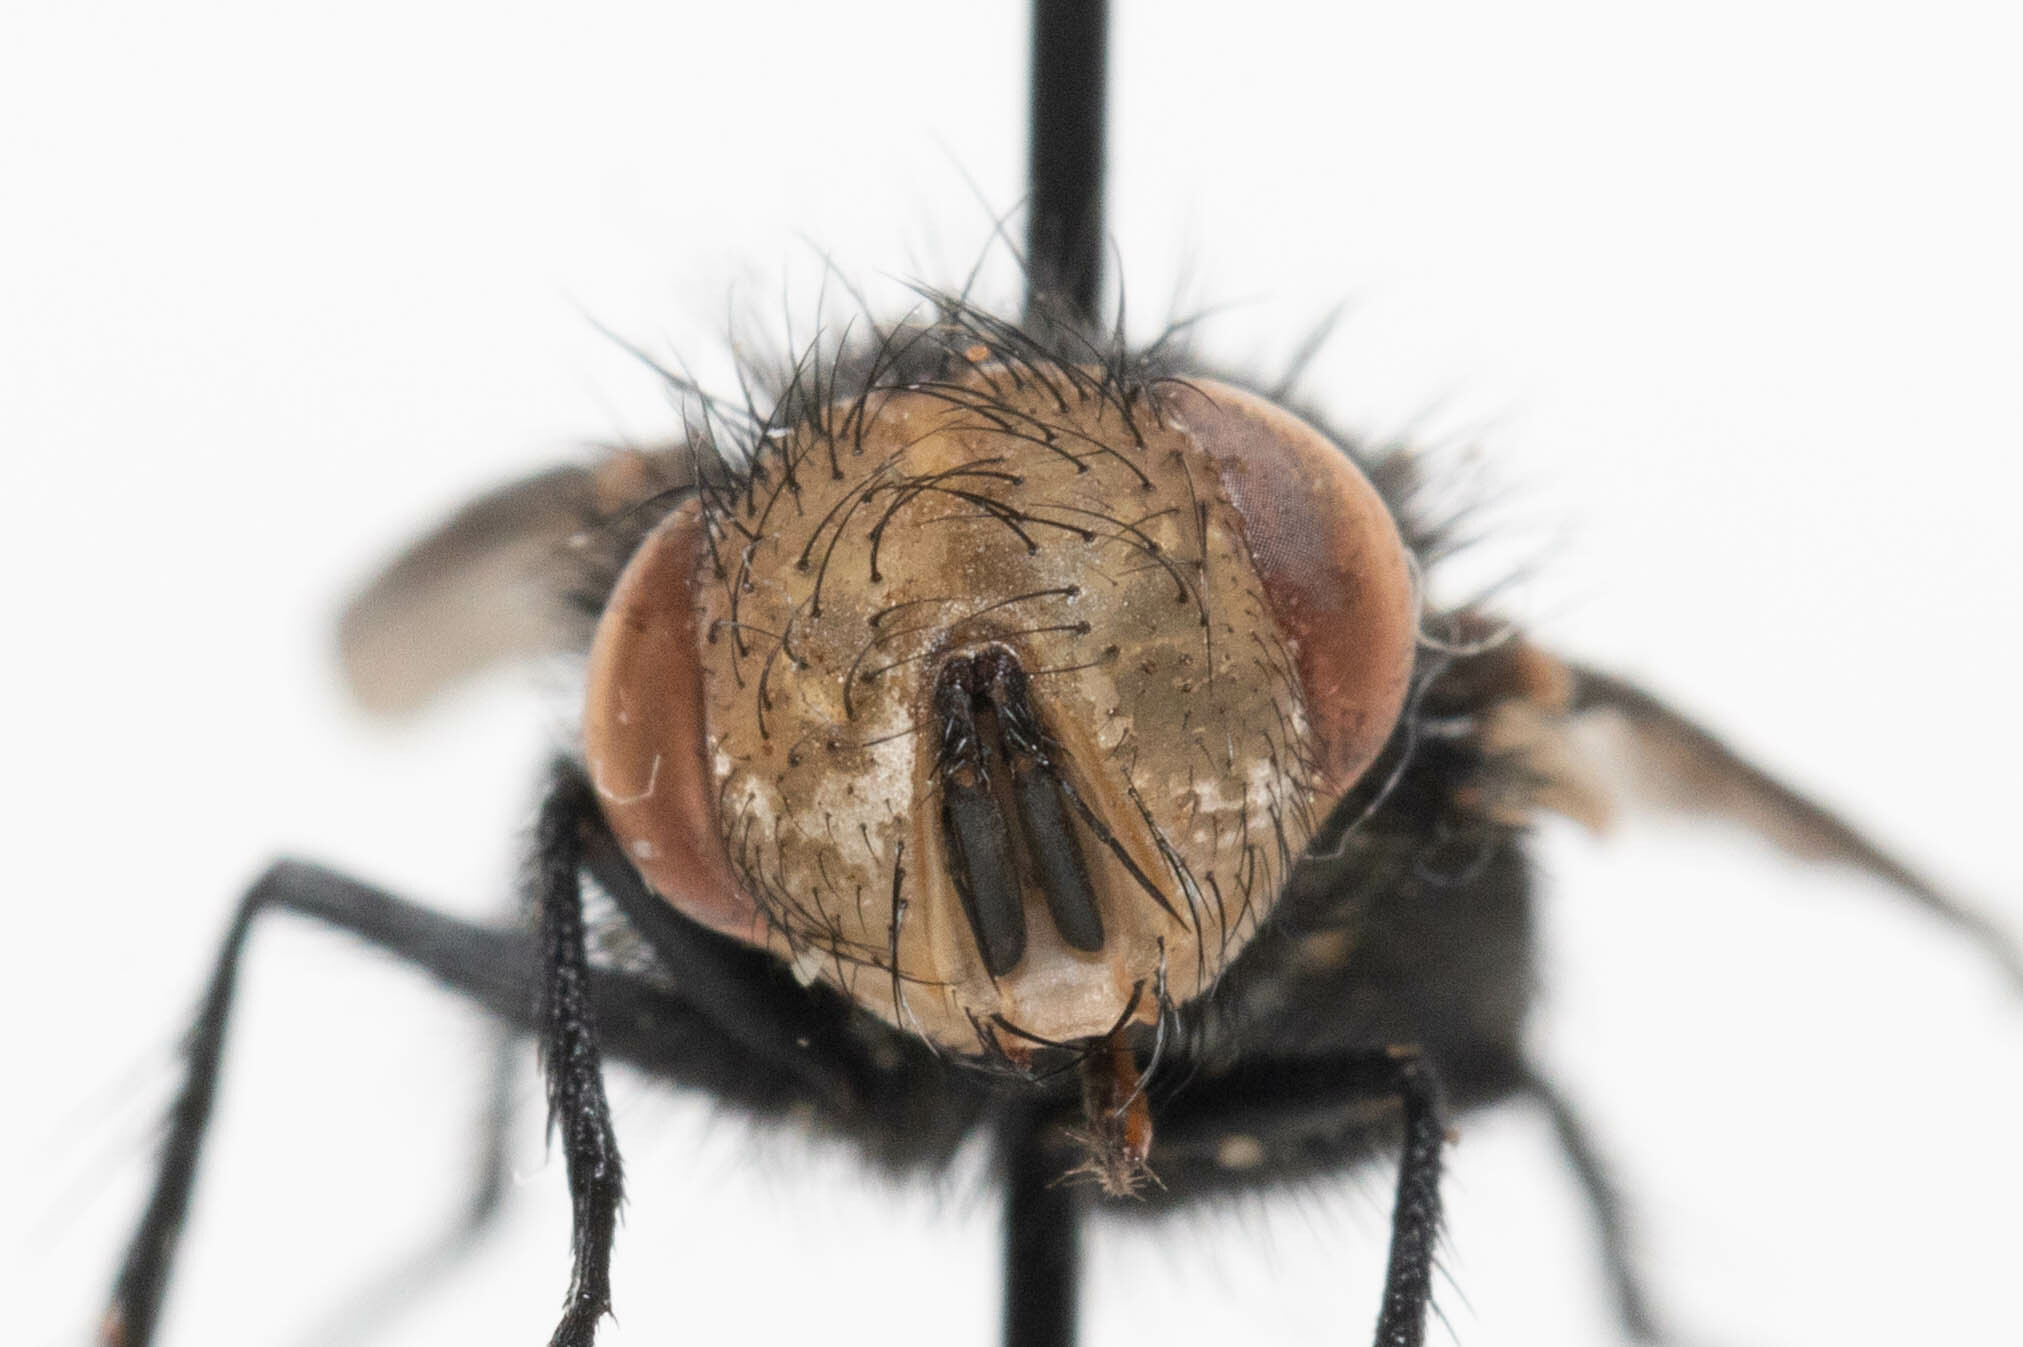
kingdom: Animalia
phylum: Arthropoda
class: Insecta
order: Diptera
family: Tachinidae
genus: Gonia
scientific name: Gonia
